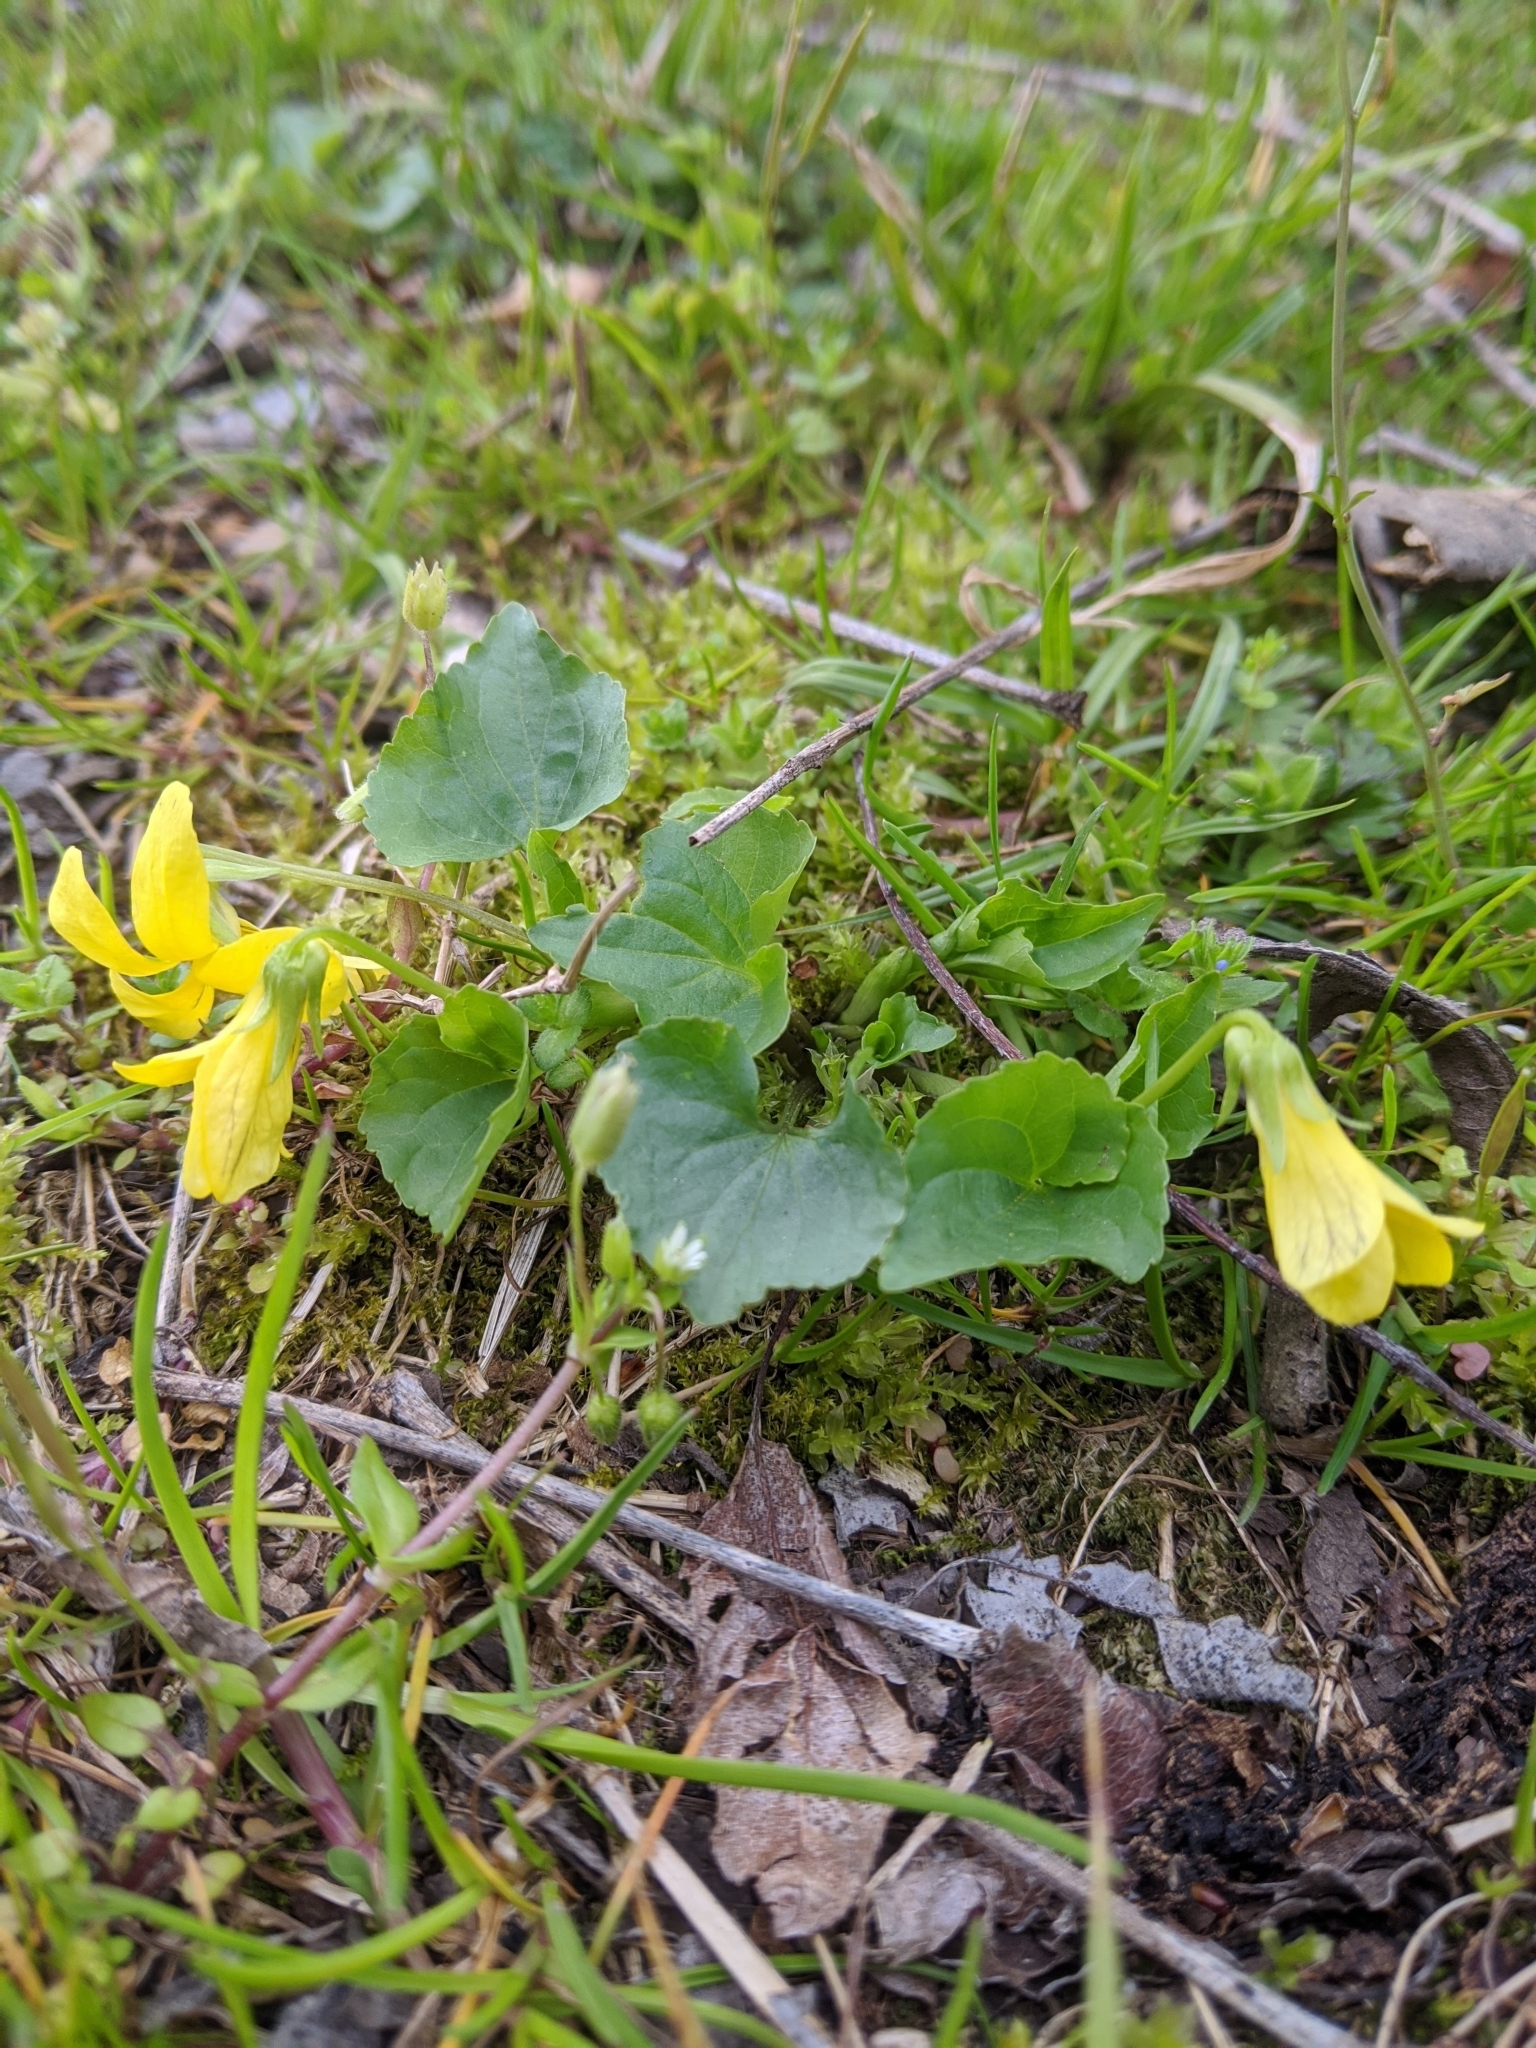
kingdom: Plantae
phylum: Tracheophyta
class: Magnoliopsida
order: Malpighiales
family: Violaceae
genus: Viola
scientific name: Viola eriocarpa
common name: Smooth yellow violet
